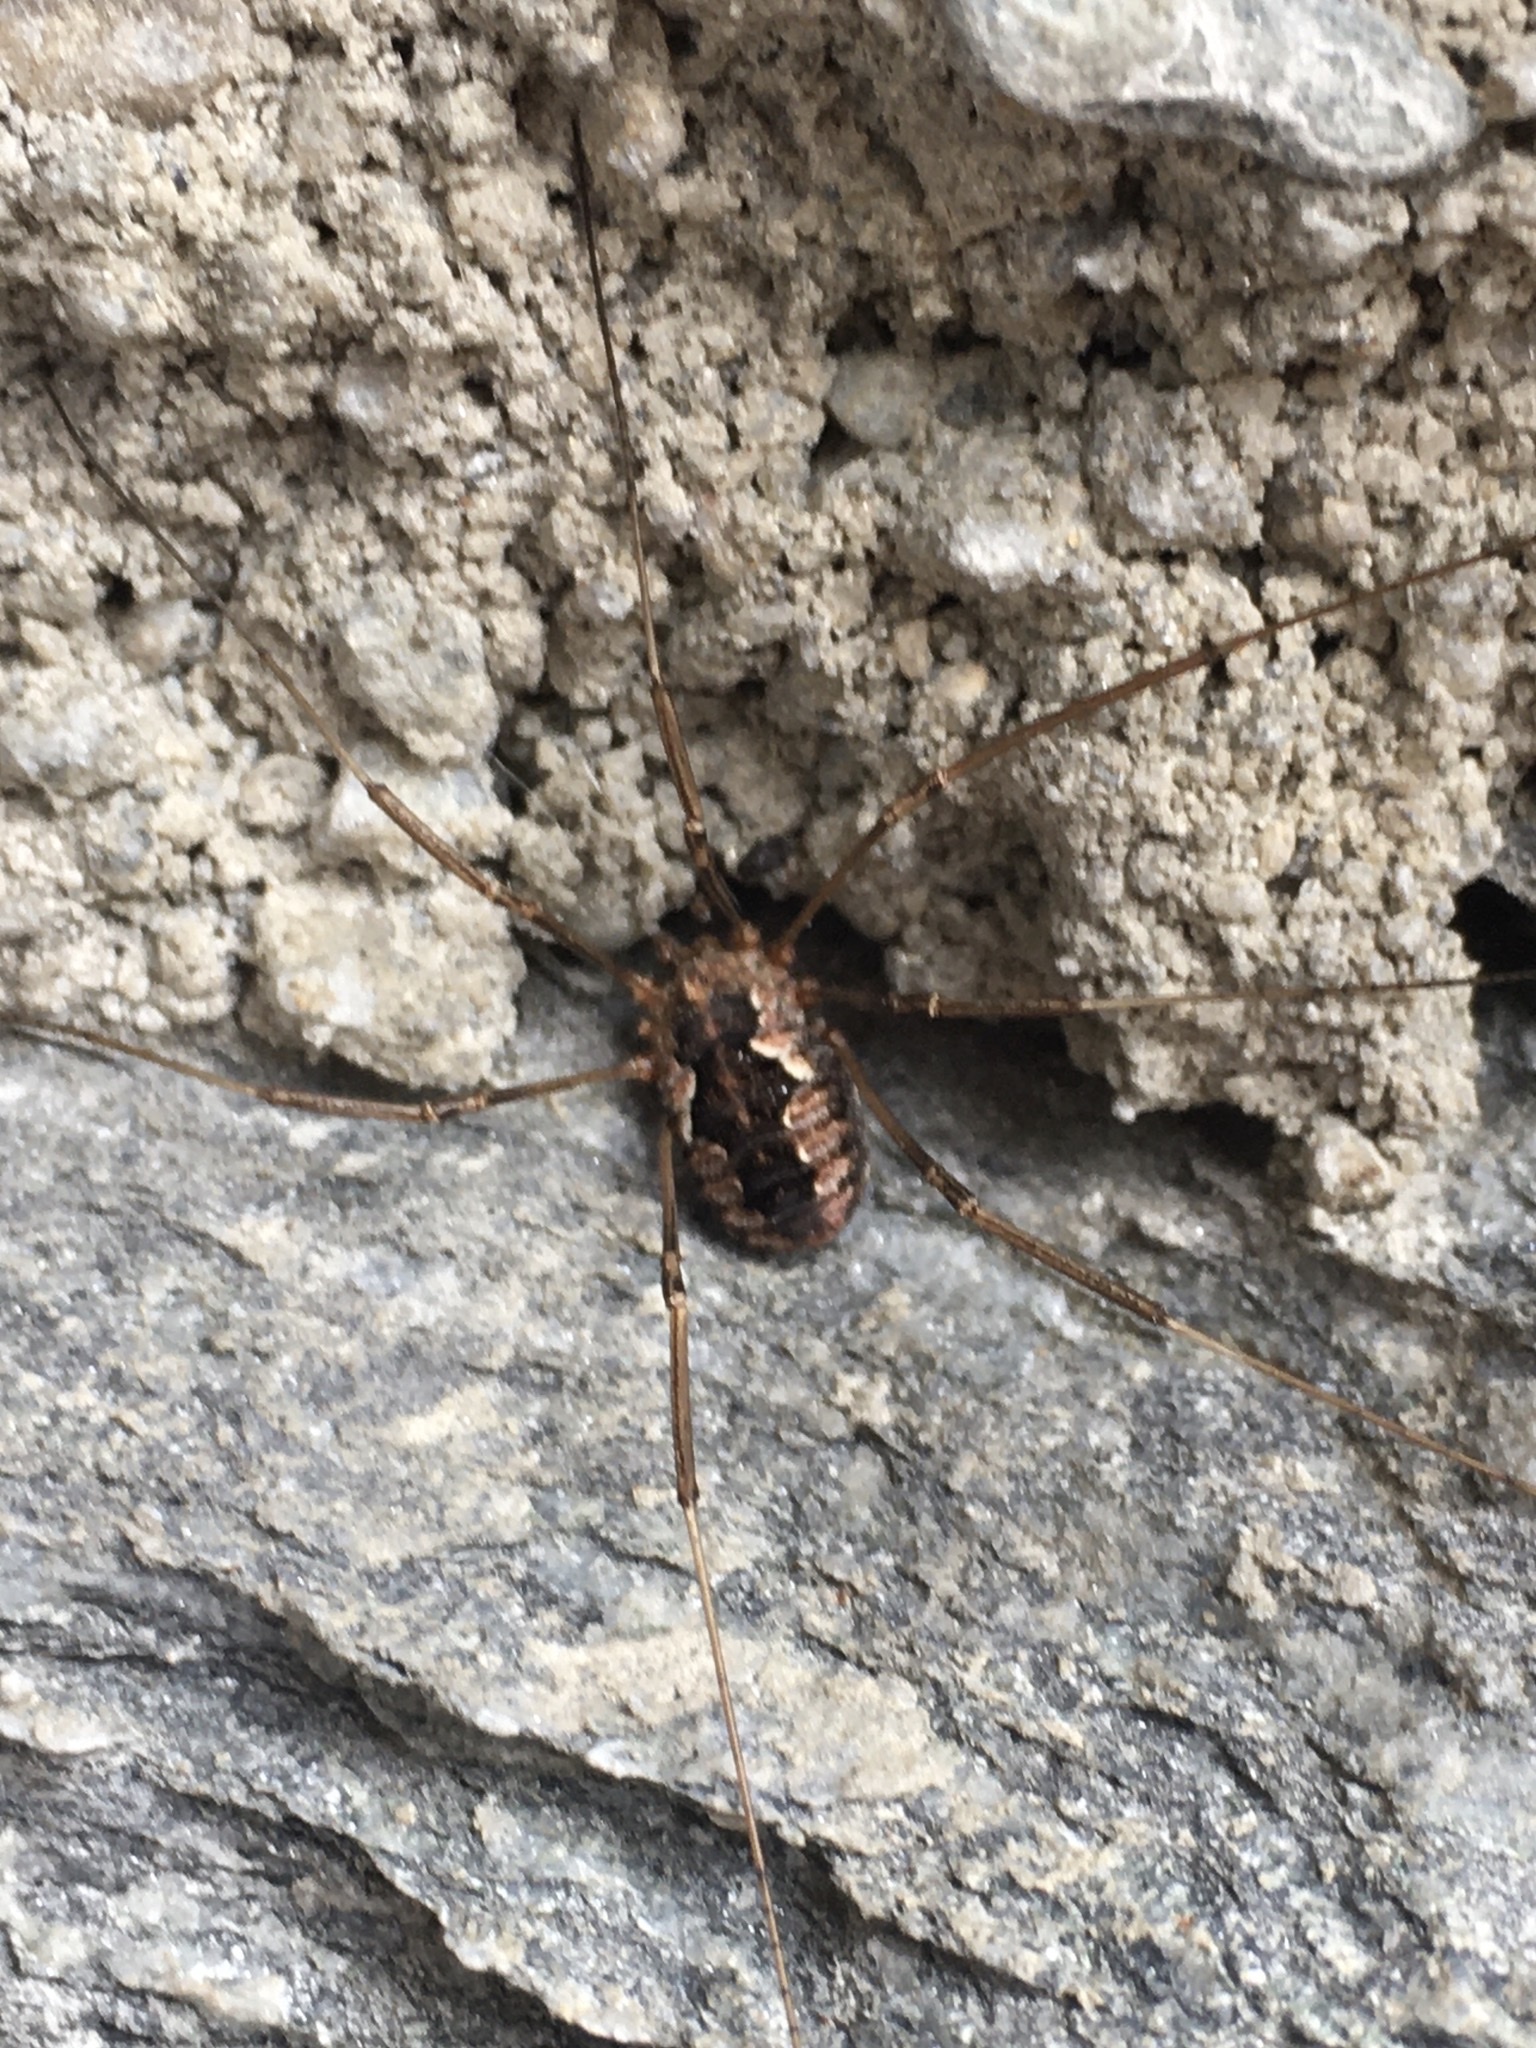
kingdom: Animalia
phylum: Arthropoda
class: Arachnida
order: Opiliones
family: Phalangiidae
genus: Phalangium
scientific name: Phalangium opilio
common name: Daddy longleg
